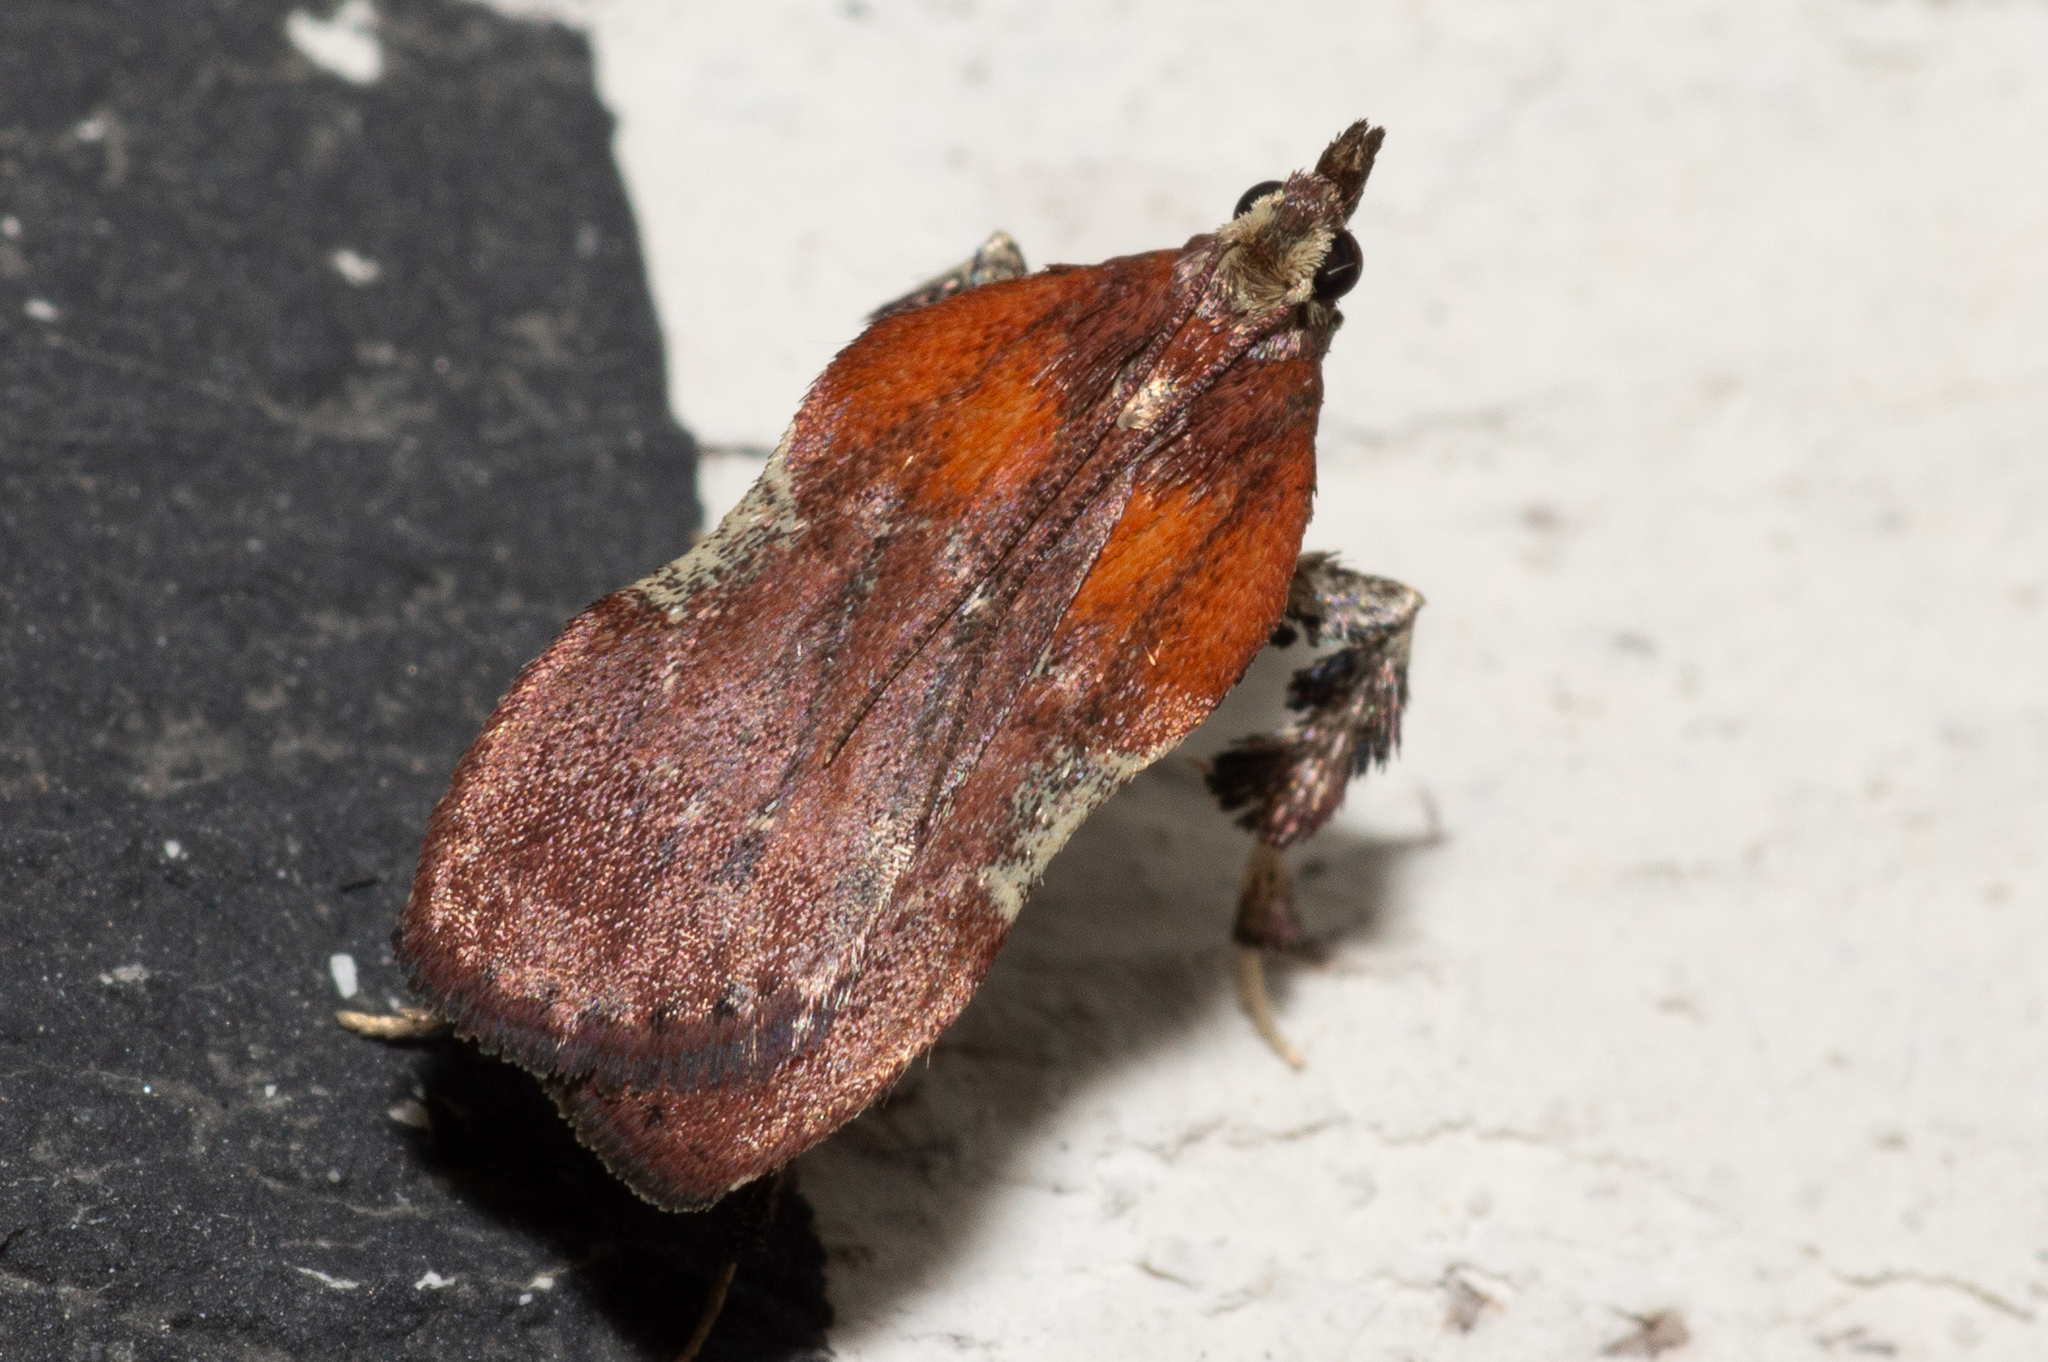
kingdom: Animalia
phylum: Arthropoda
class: Insecta
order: Lepidoptera
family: Pyralidae
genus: Galasa
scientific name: Galasa nigrinodis
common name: Boxwood leaftier moth
